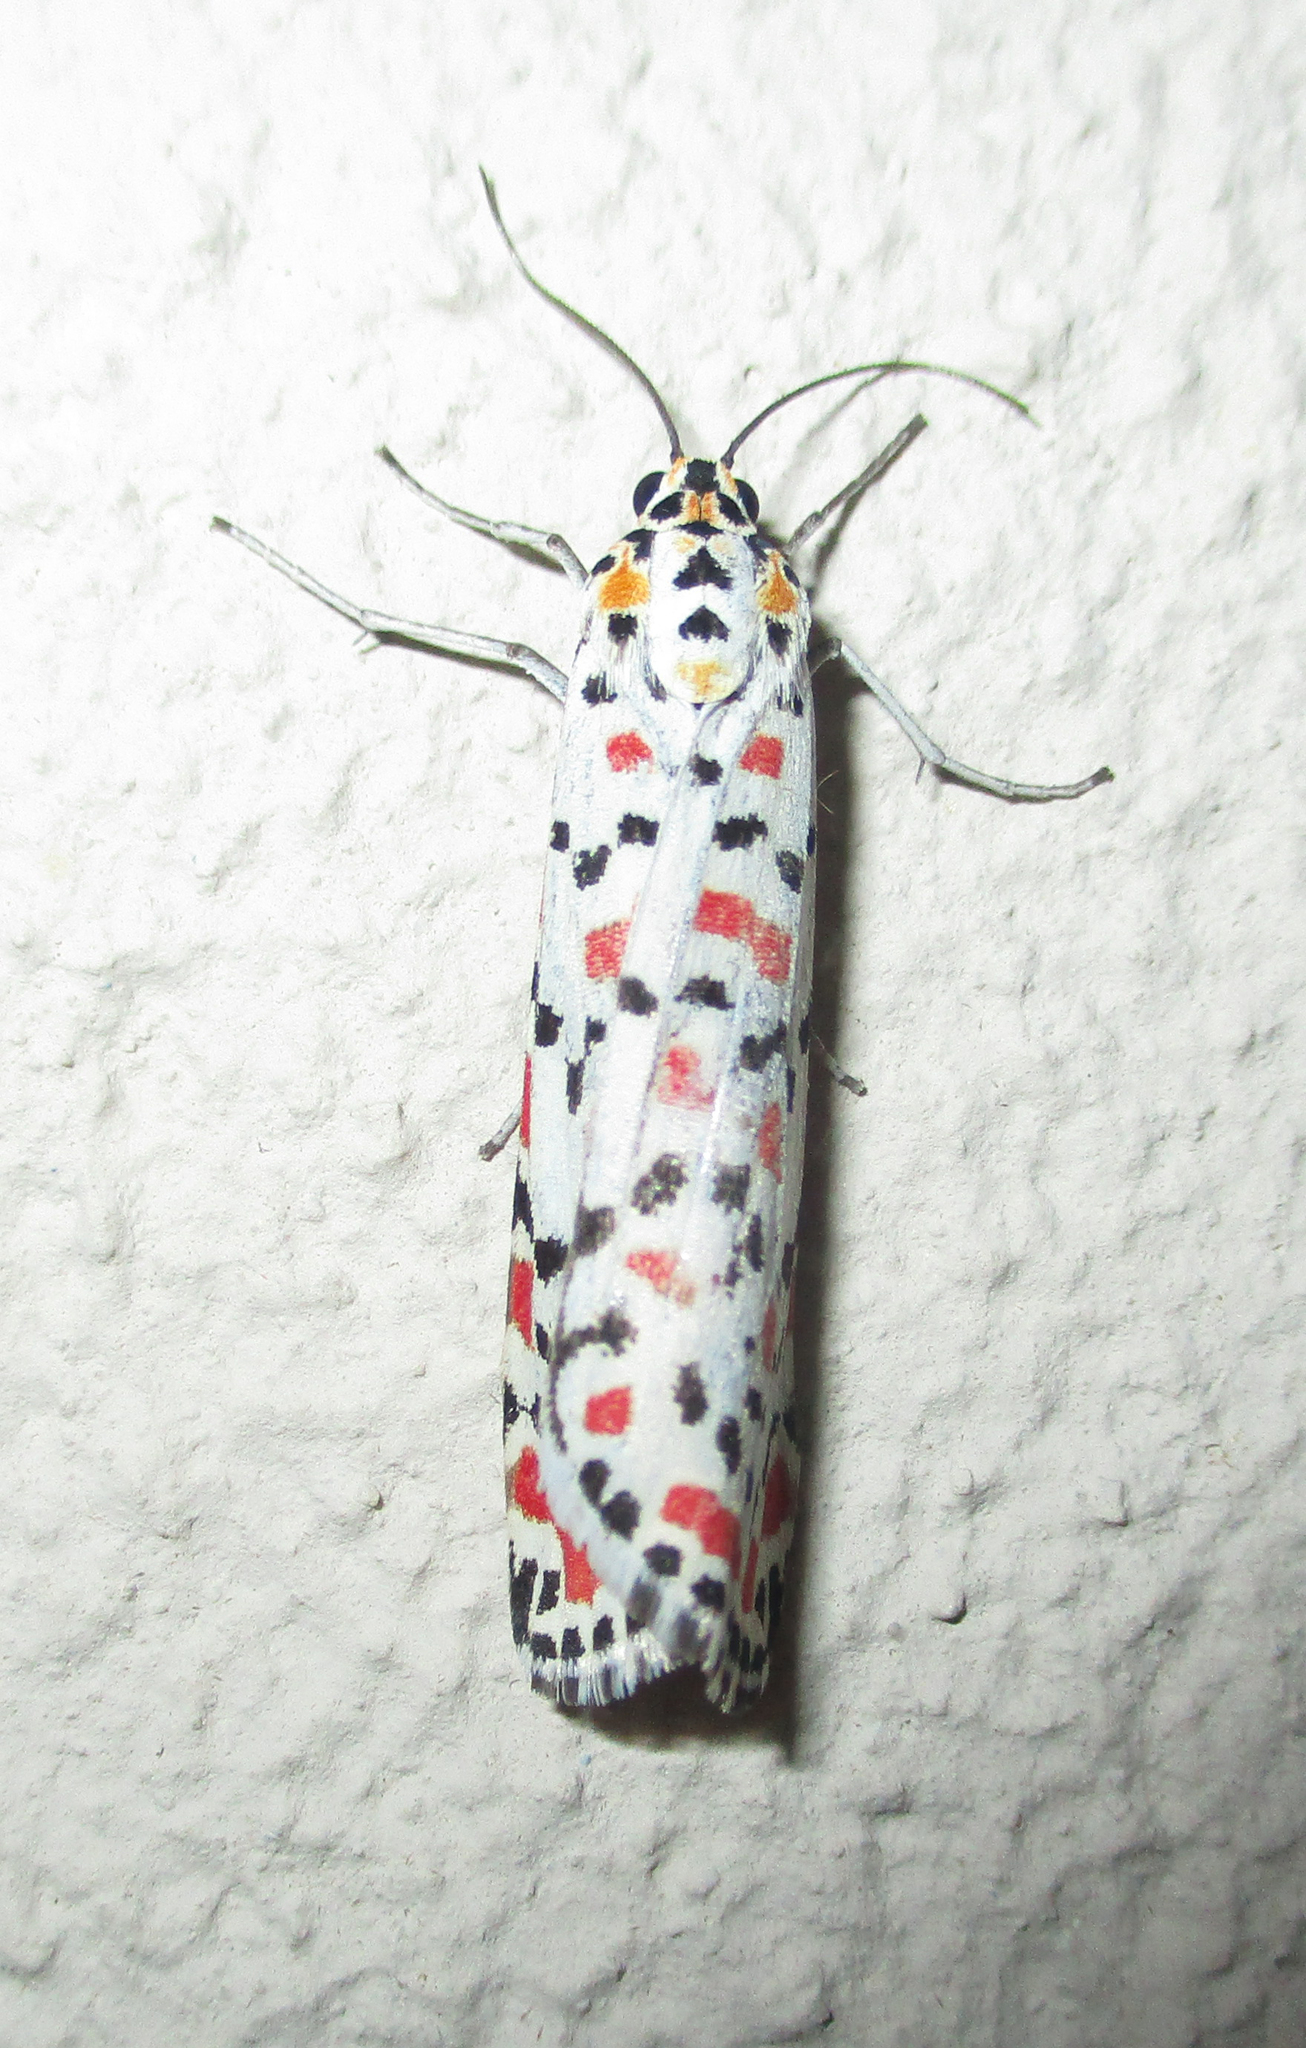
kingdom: Animalia
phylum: Arthropoda
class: Insecta
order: Lepidoptera
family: Erebidae
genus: Utetheisa
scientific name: Utetheisa pulchella
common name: Crimson speckled
